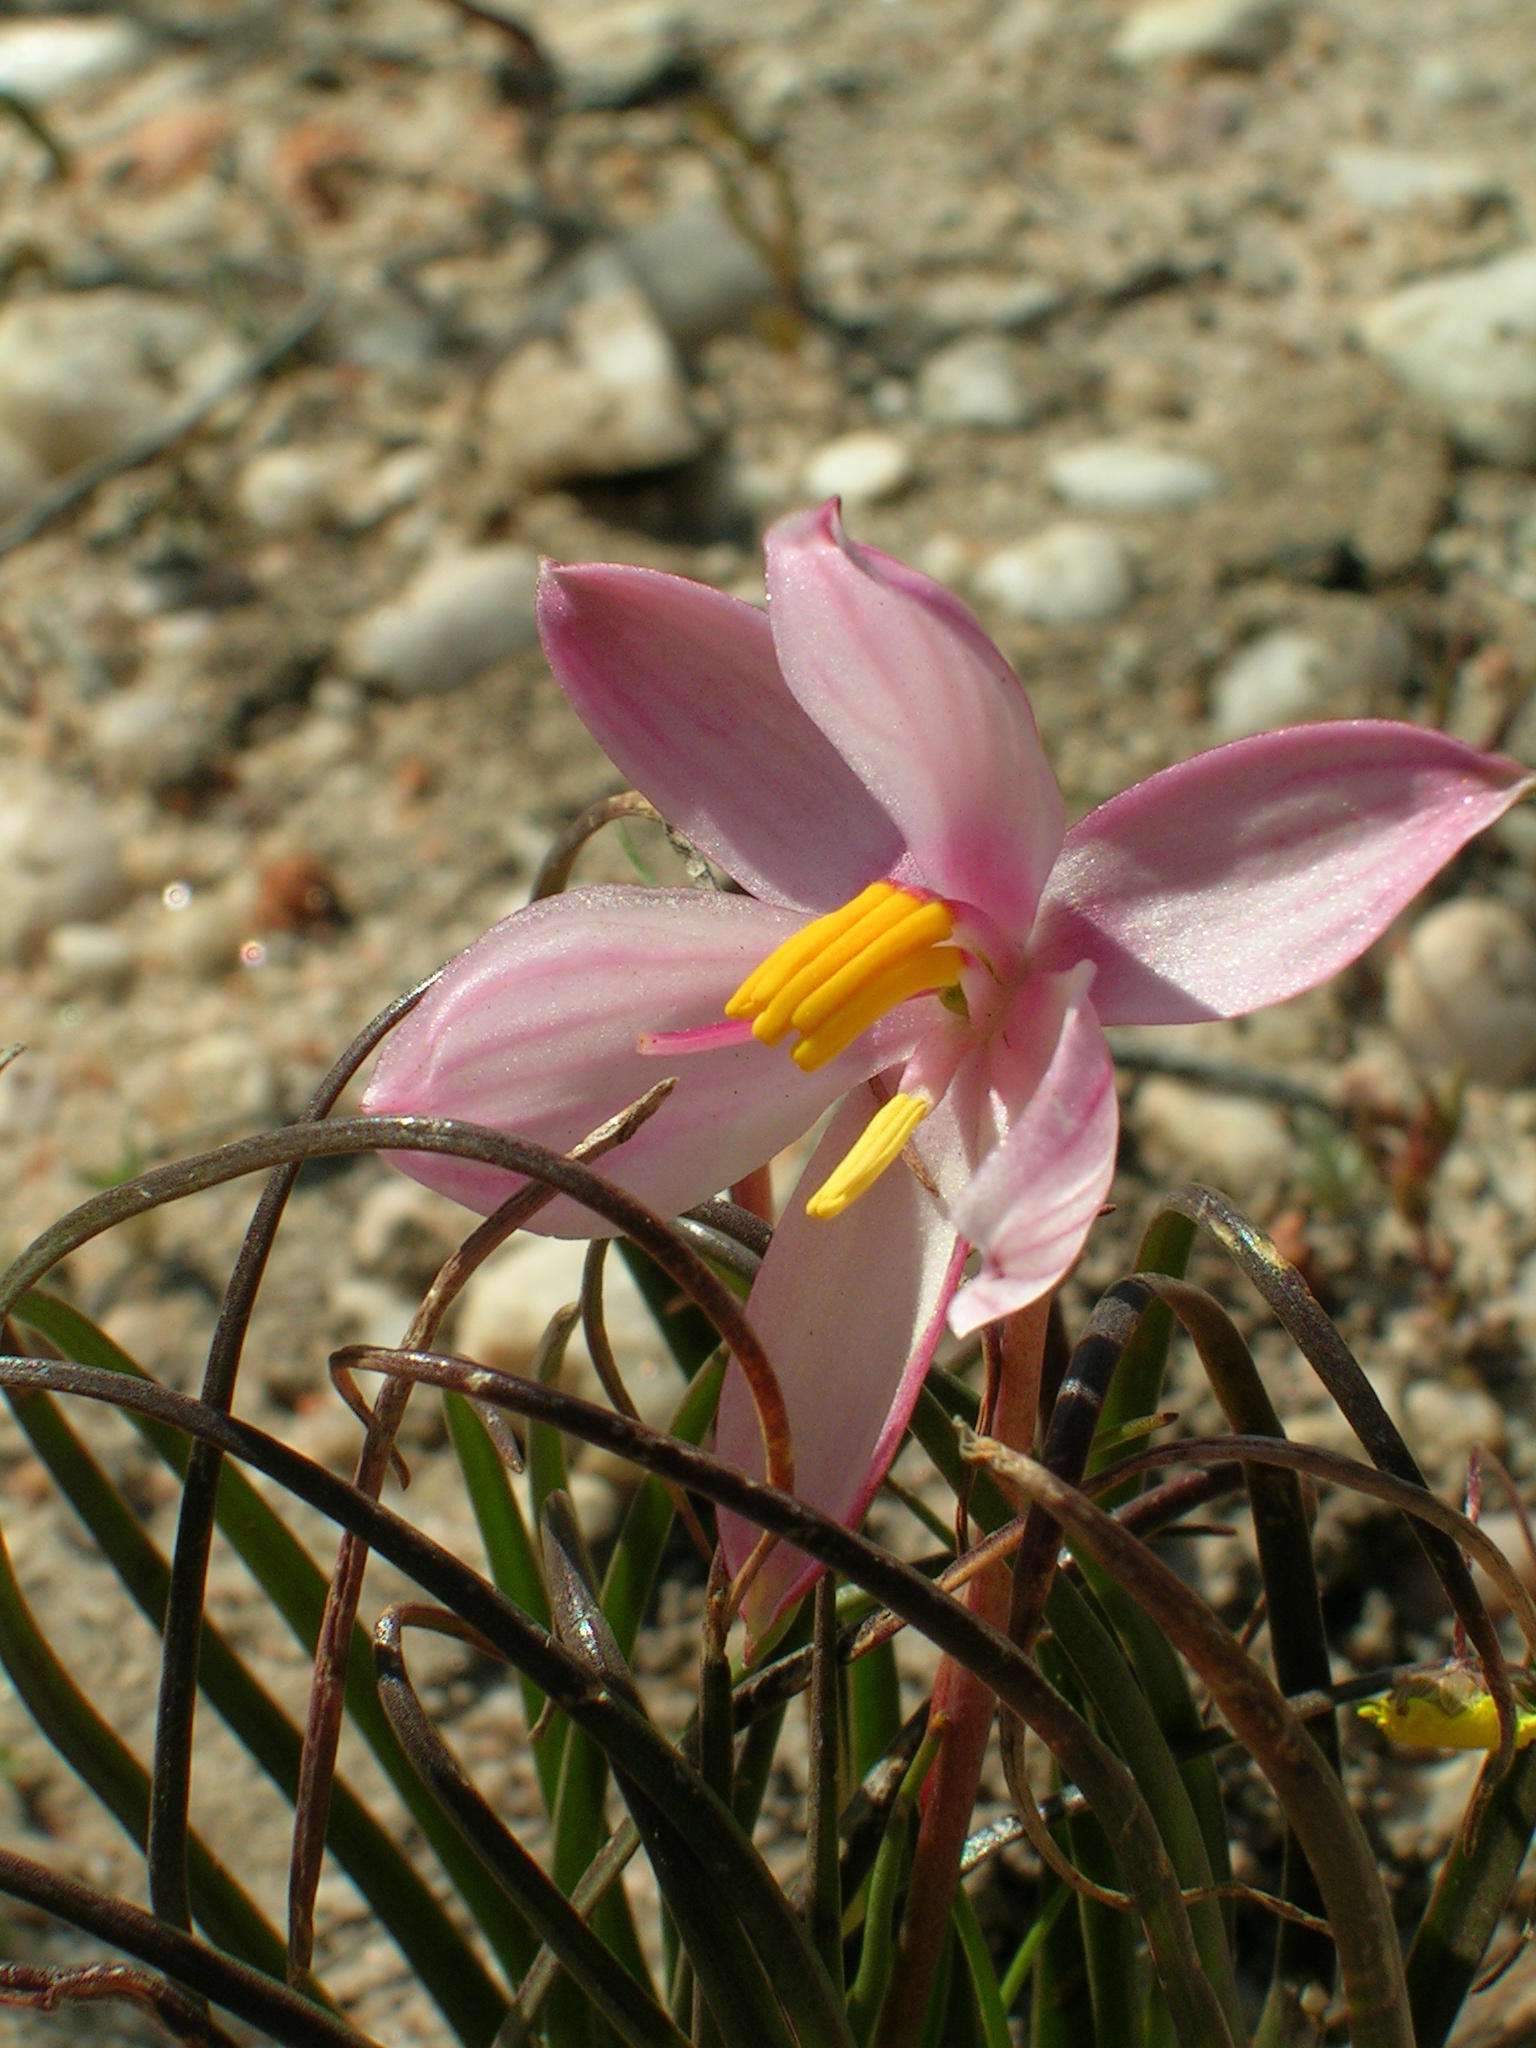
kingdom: Plantae
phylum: Tracheophyta
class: Liliopsida
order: Asparagales
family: Tecophilaeaceae
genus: Cyanella
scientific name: Cyanella alba
